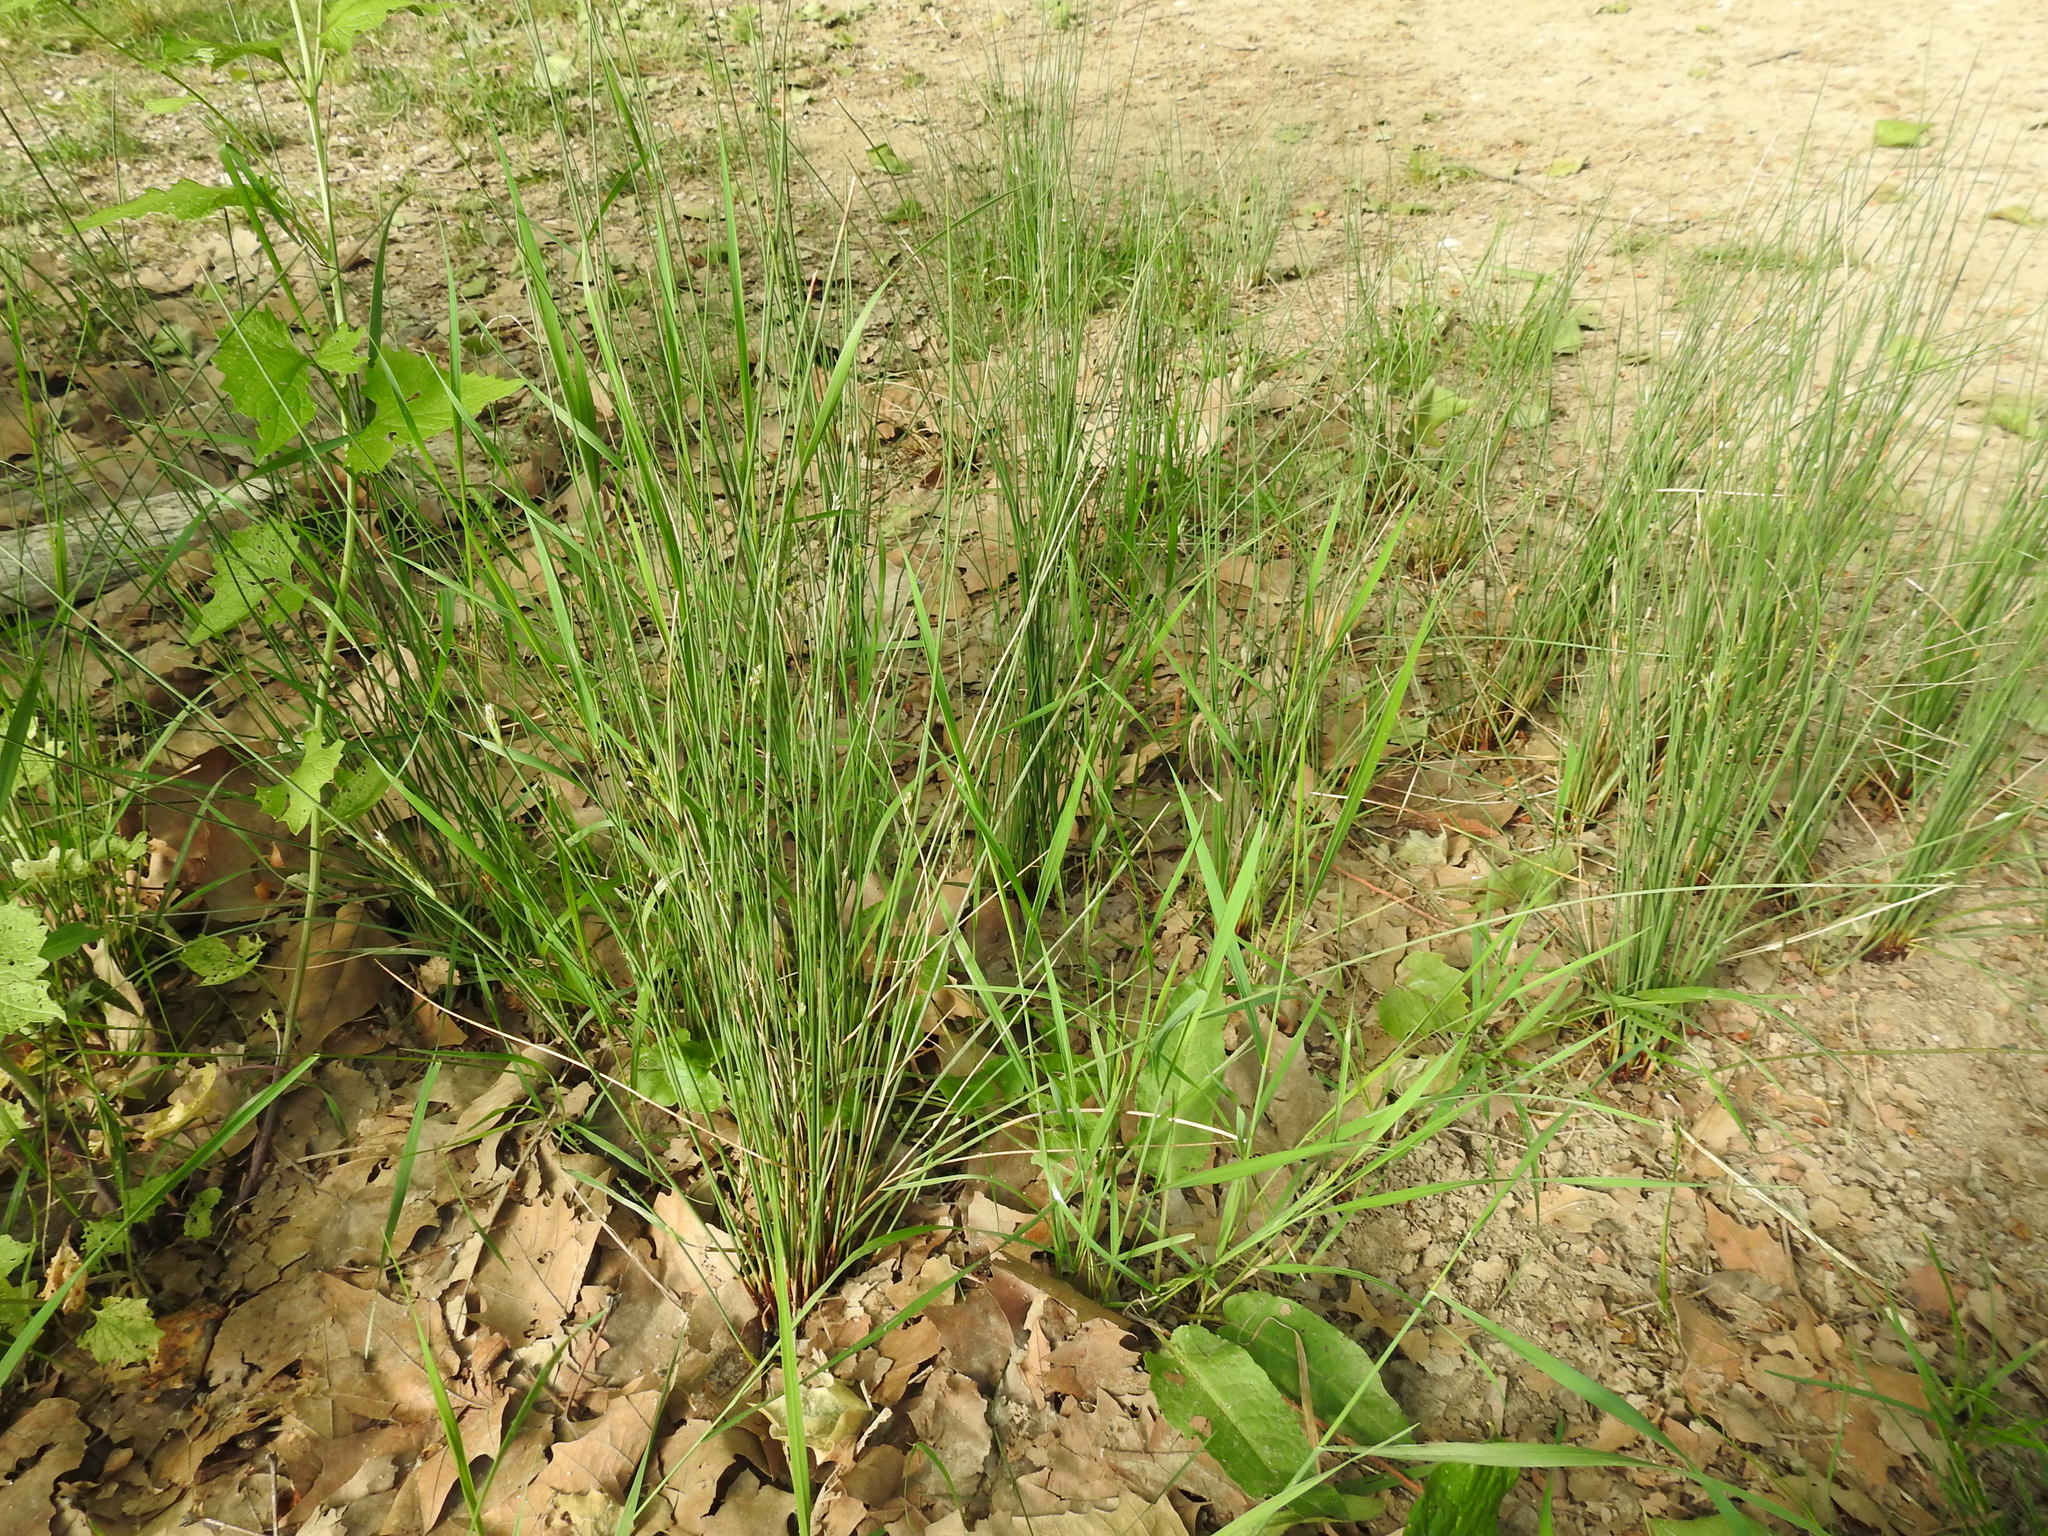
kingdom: Plantae
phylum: Tracheophyta
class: Liliopsida
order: Poales
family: Juncaceae
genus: Juncus
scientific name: Juncus inflexus
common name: Hard rush
